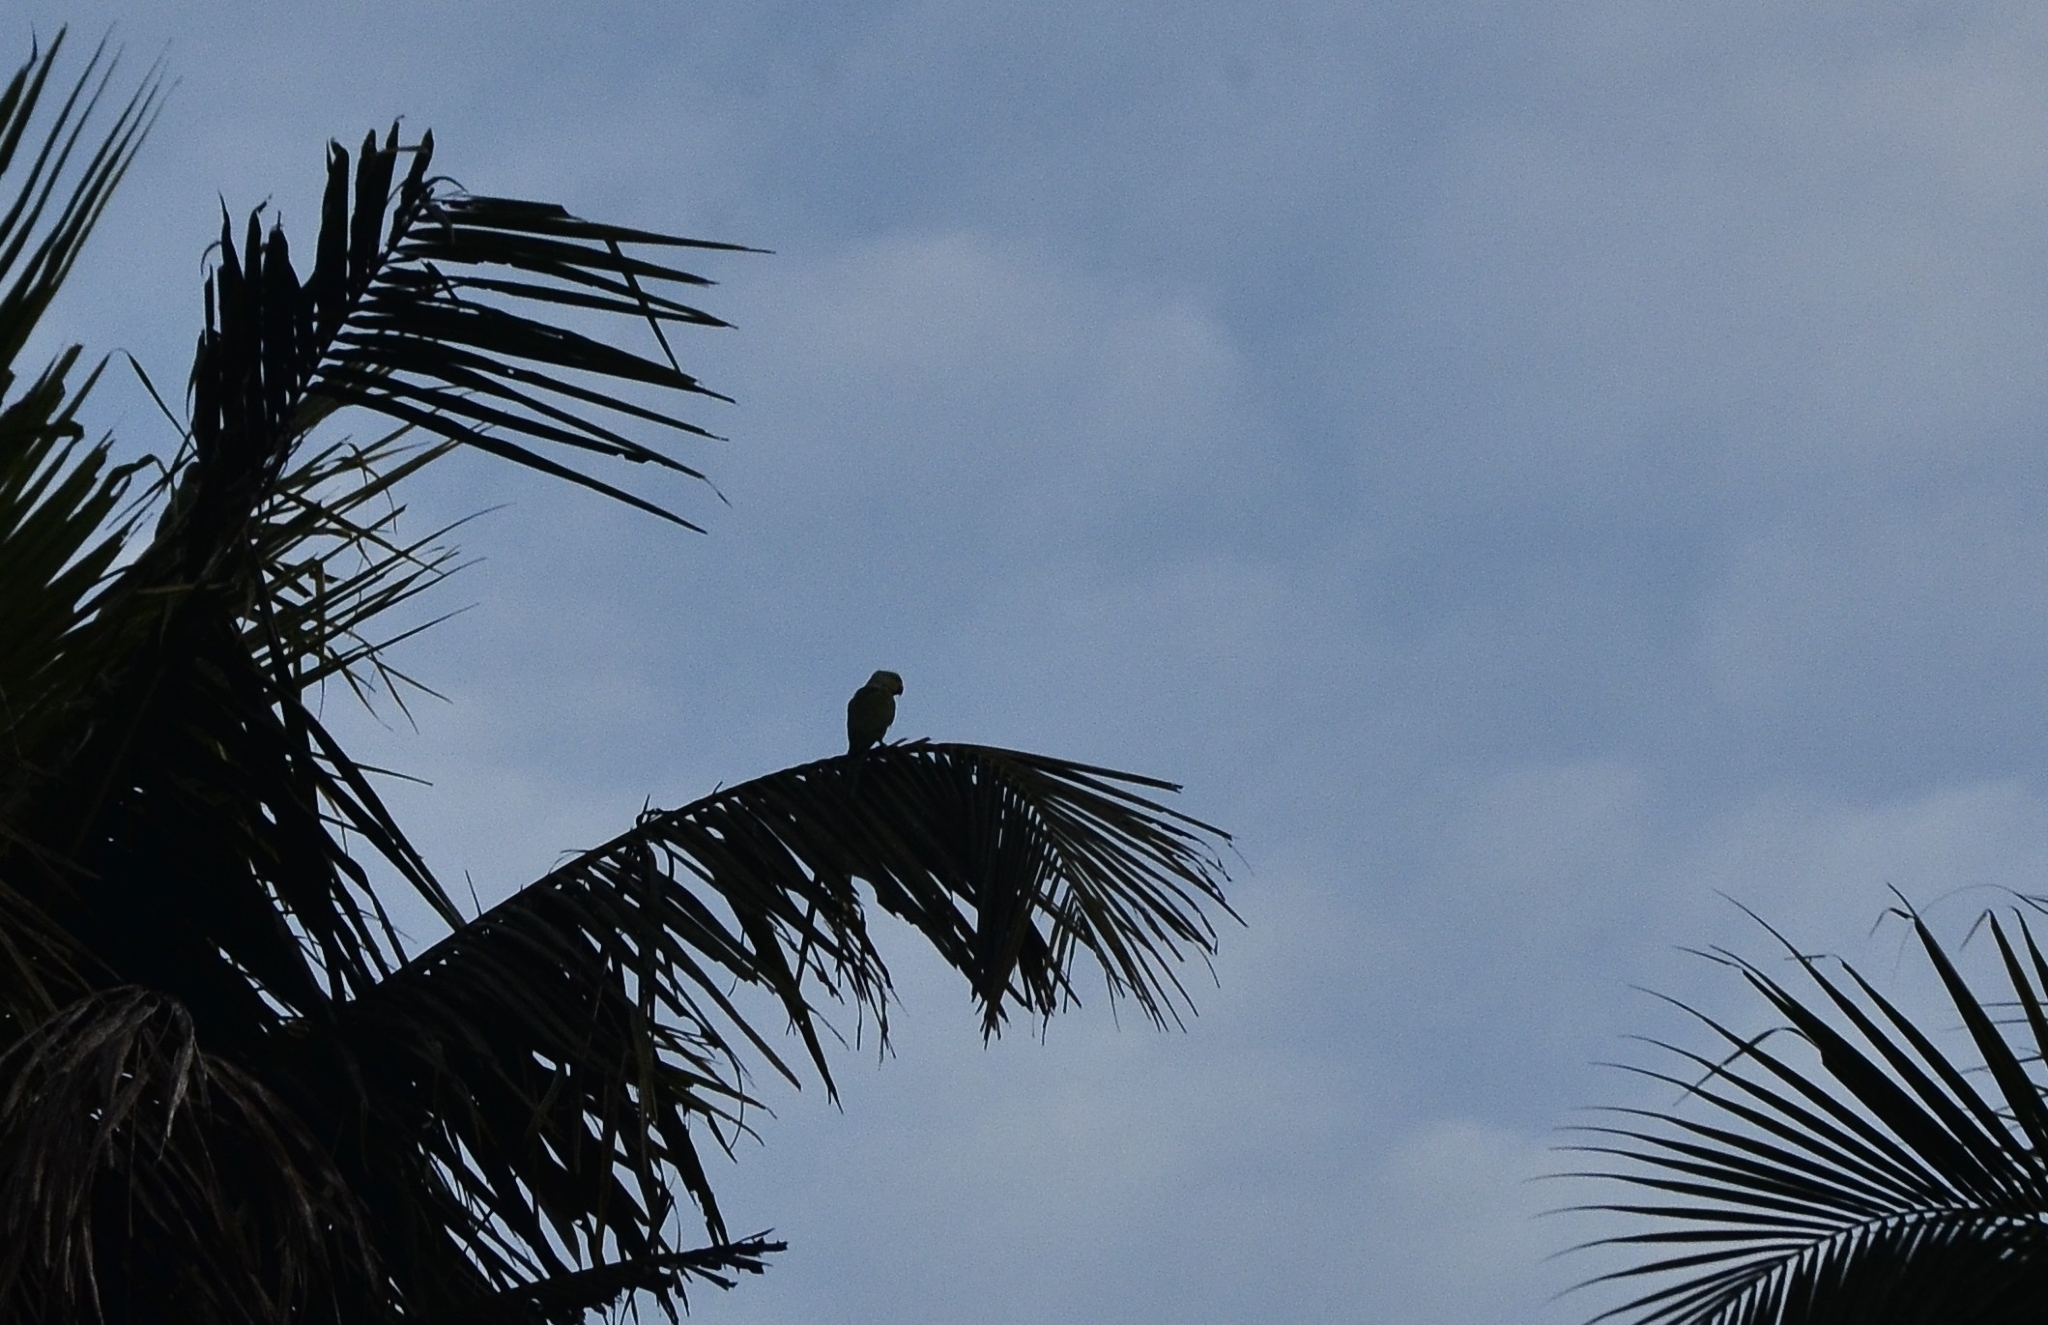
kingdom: Animalia
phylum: Chordata
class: Aves
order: Psittaciformes
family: Psittacidae
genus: Psittacula
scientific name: Psittacula krameri
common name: Rose-ringed parakeet
